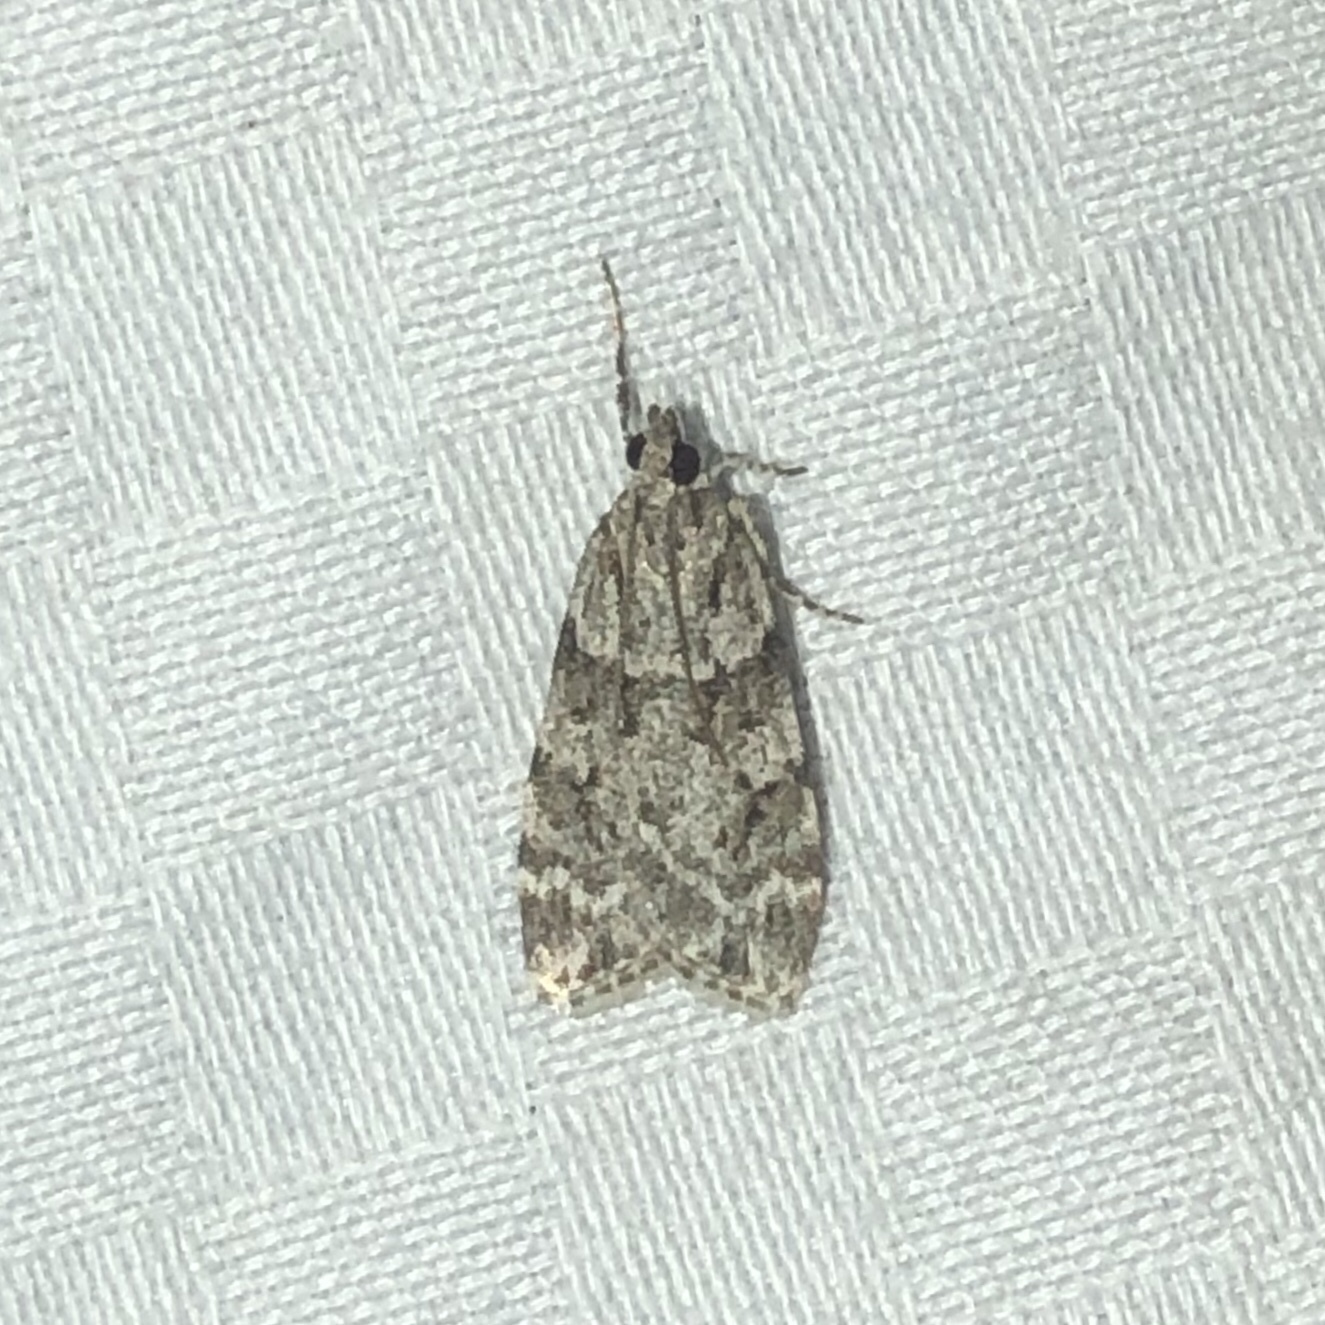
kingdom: Animalia
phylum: Arthropoda
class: Insecta
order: Lepidoptera
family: Crambidae
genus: Scoparia
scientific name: Scoparia biplagialis
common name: Double-striped scoparia moth
